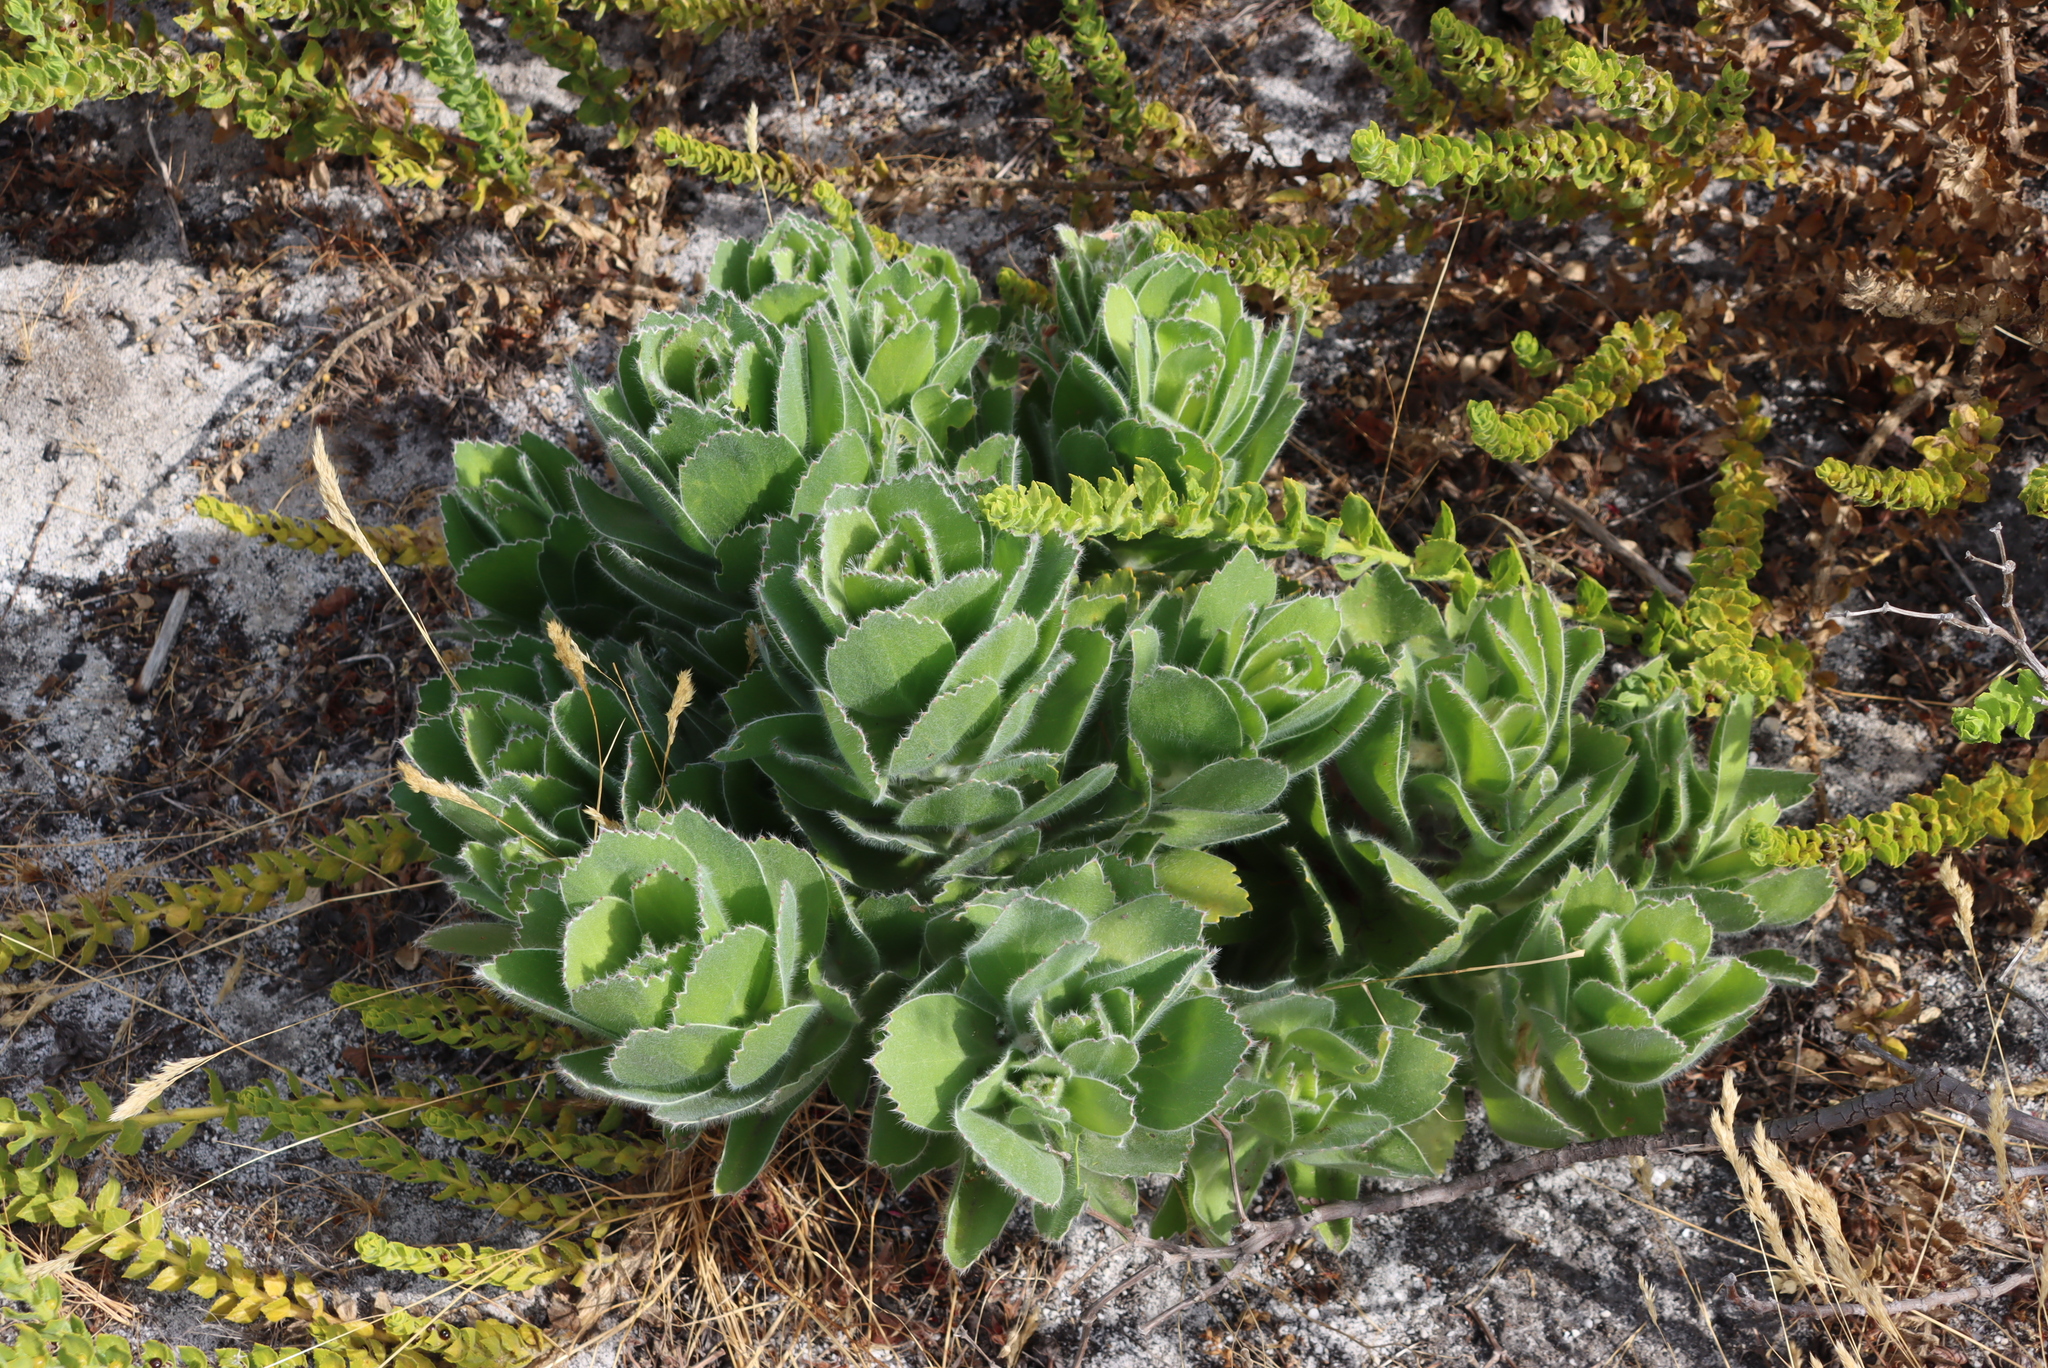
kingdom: Plantae
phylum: Tracheophyta
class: Magnoliopsida
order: Proteales
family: Proteaceae
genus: Leucospermum
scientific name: Leucospermum conocarpodendron
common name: Tree pincushion
